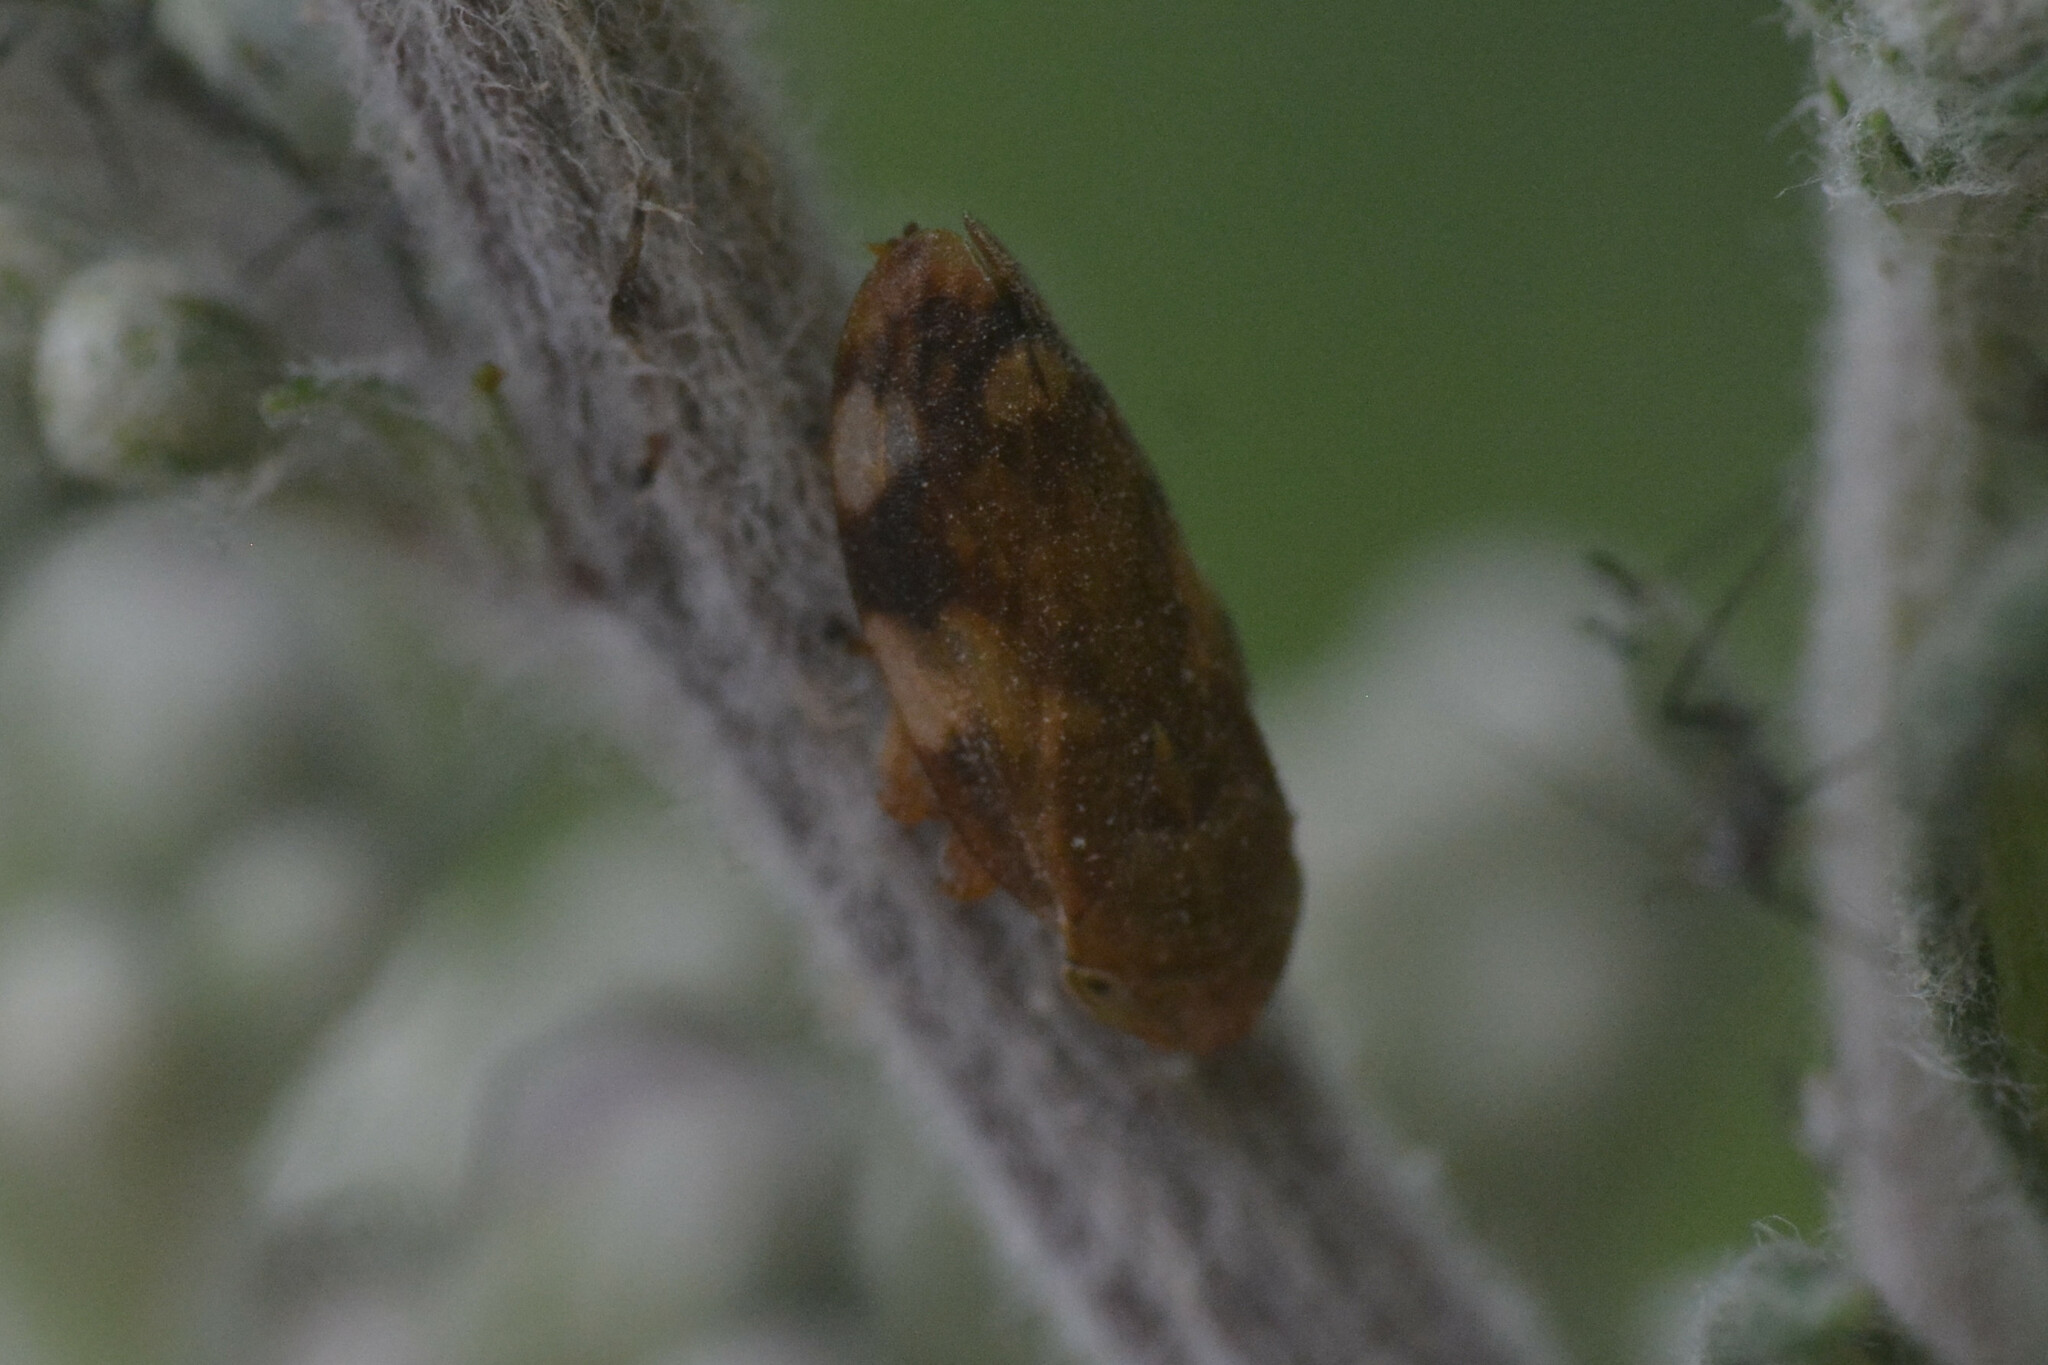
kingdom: Animalia
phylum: Arthropoda
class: Insecta
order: Hemiptera
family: Aphrophoridae
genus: Philaenus
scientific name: Philaenus spumarius
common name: Meadow spittlebug
